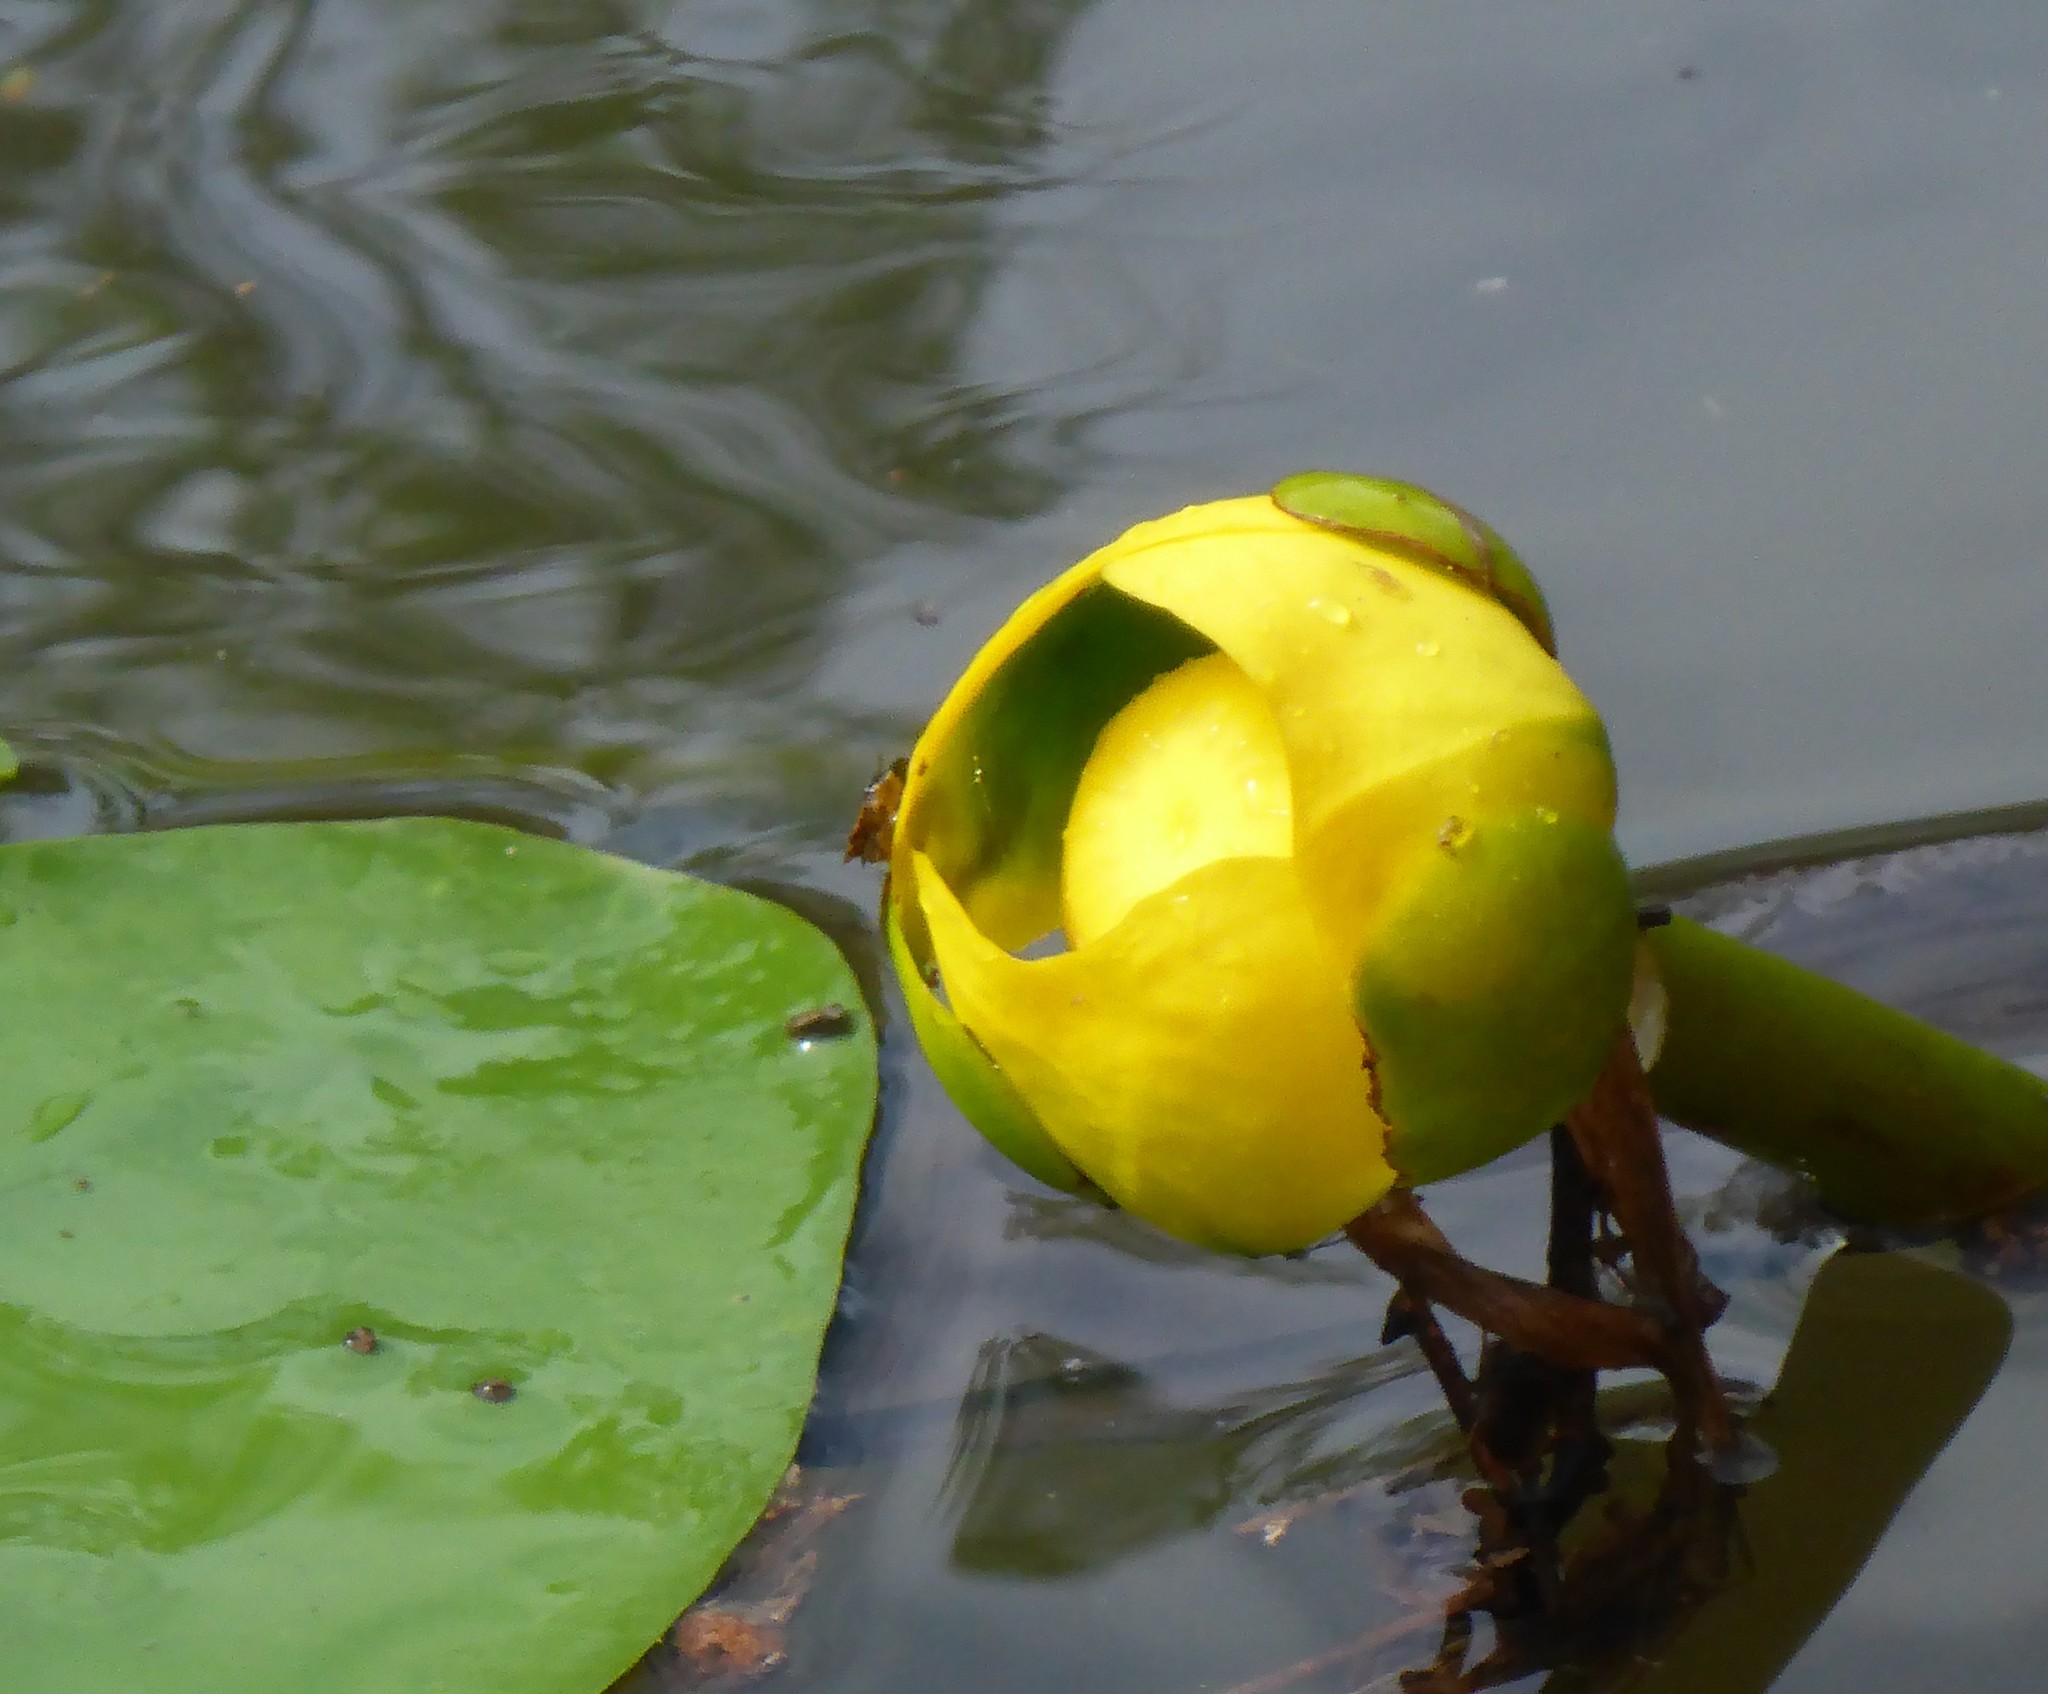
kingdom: Plantae
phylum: Tracheophyta
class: Magnoliopsida
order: Nymphaeales
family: Nymphaeaceae
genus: Nuphar
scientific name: Nuphar advena
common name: Spatter-dock
